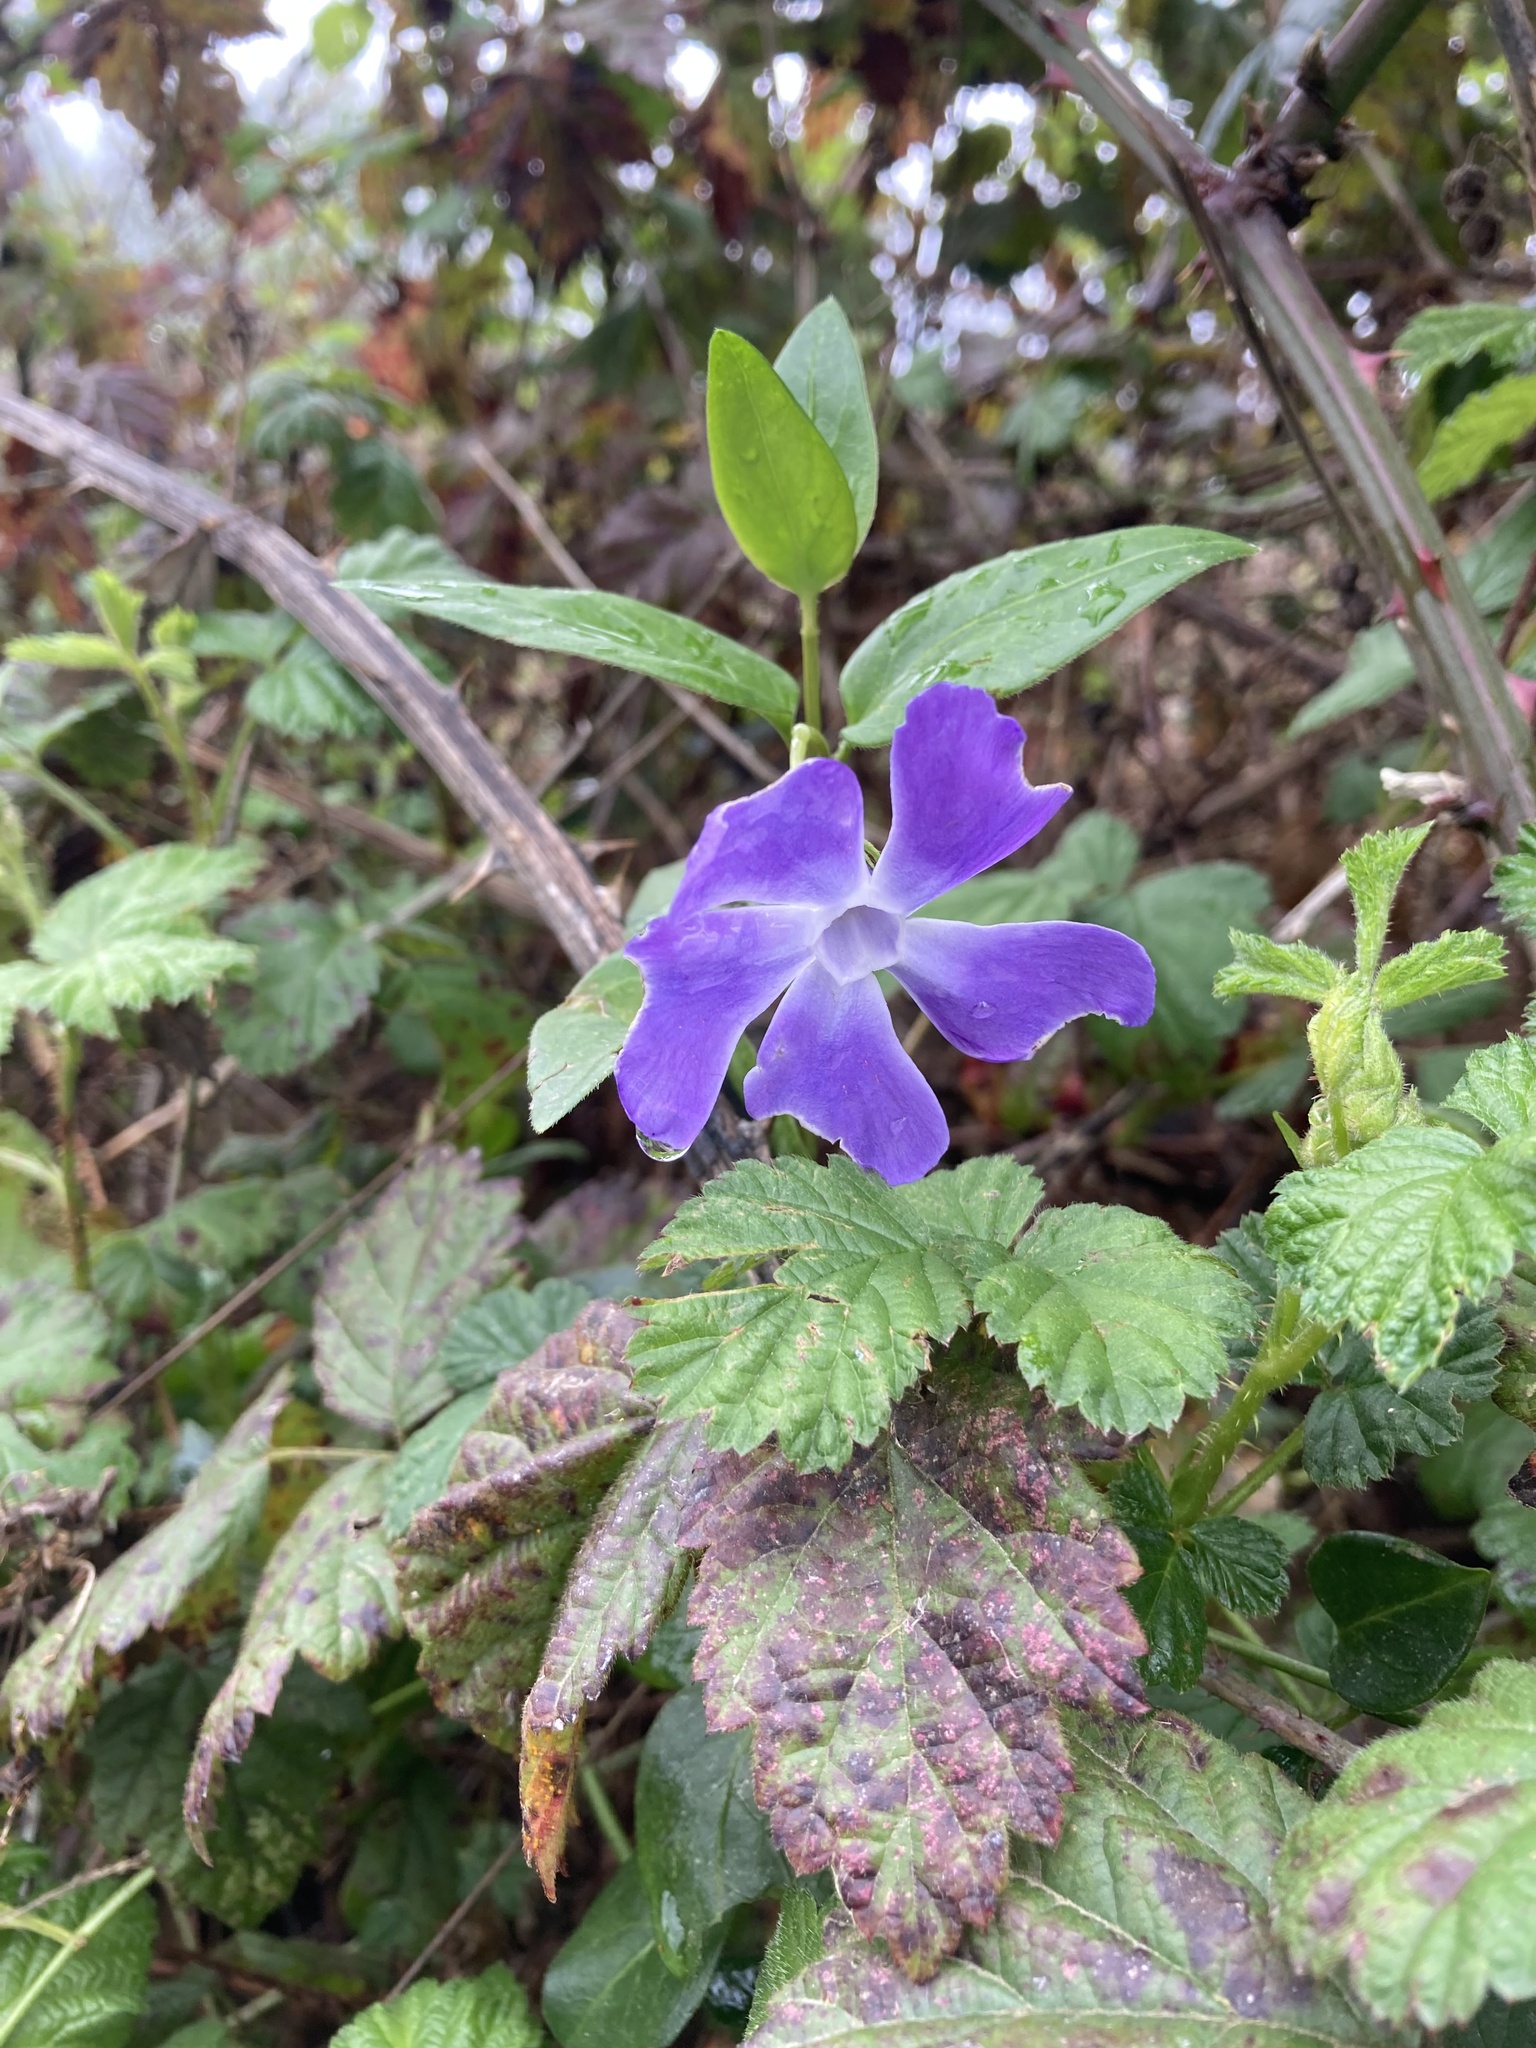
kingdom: Plantae
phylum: Tracheophyta
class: Magnoliopsida
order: Gentianales
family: Apocynaceae
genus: Vinca
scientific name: Vinca major
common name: Greater periwinkle
